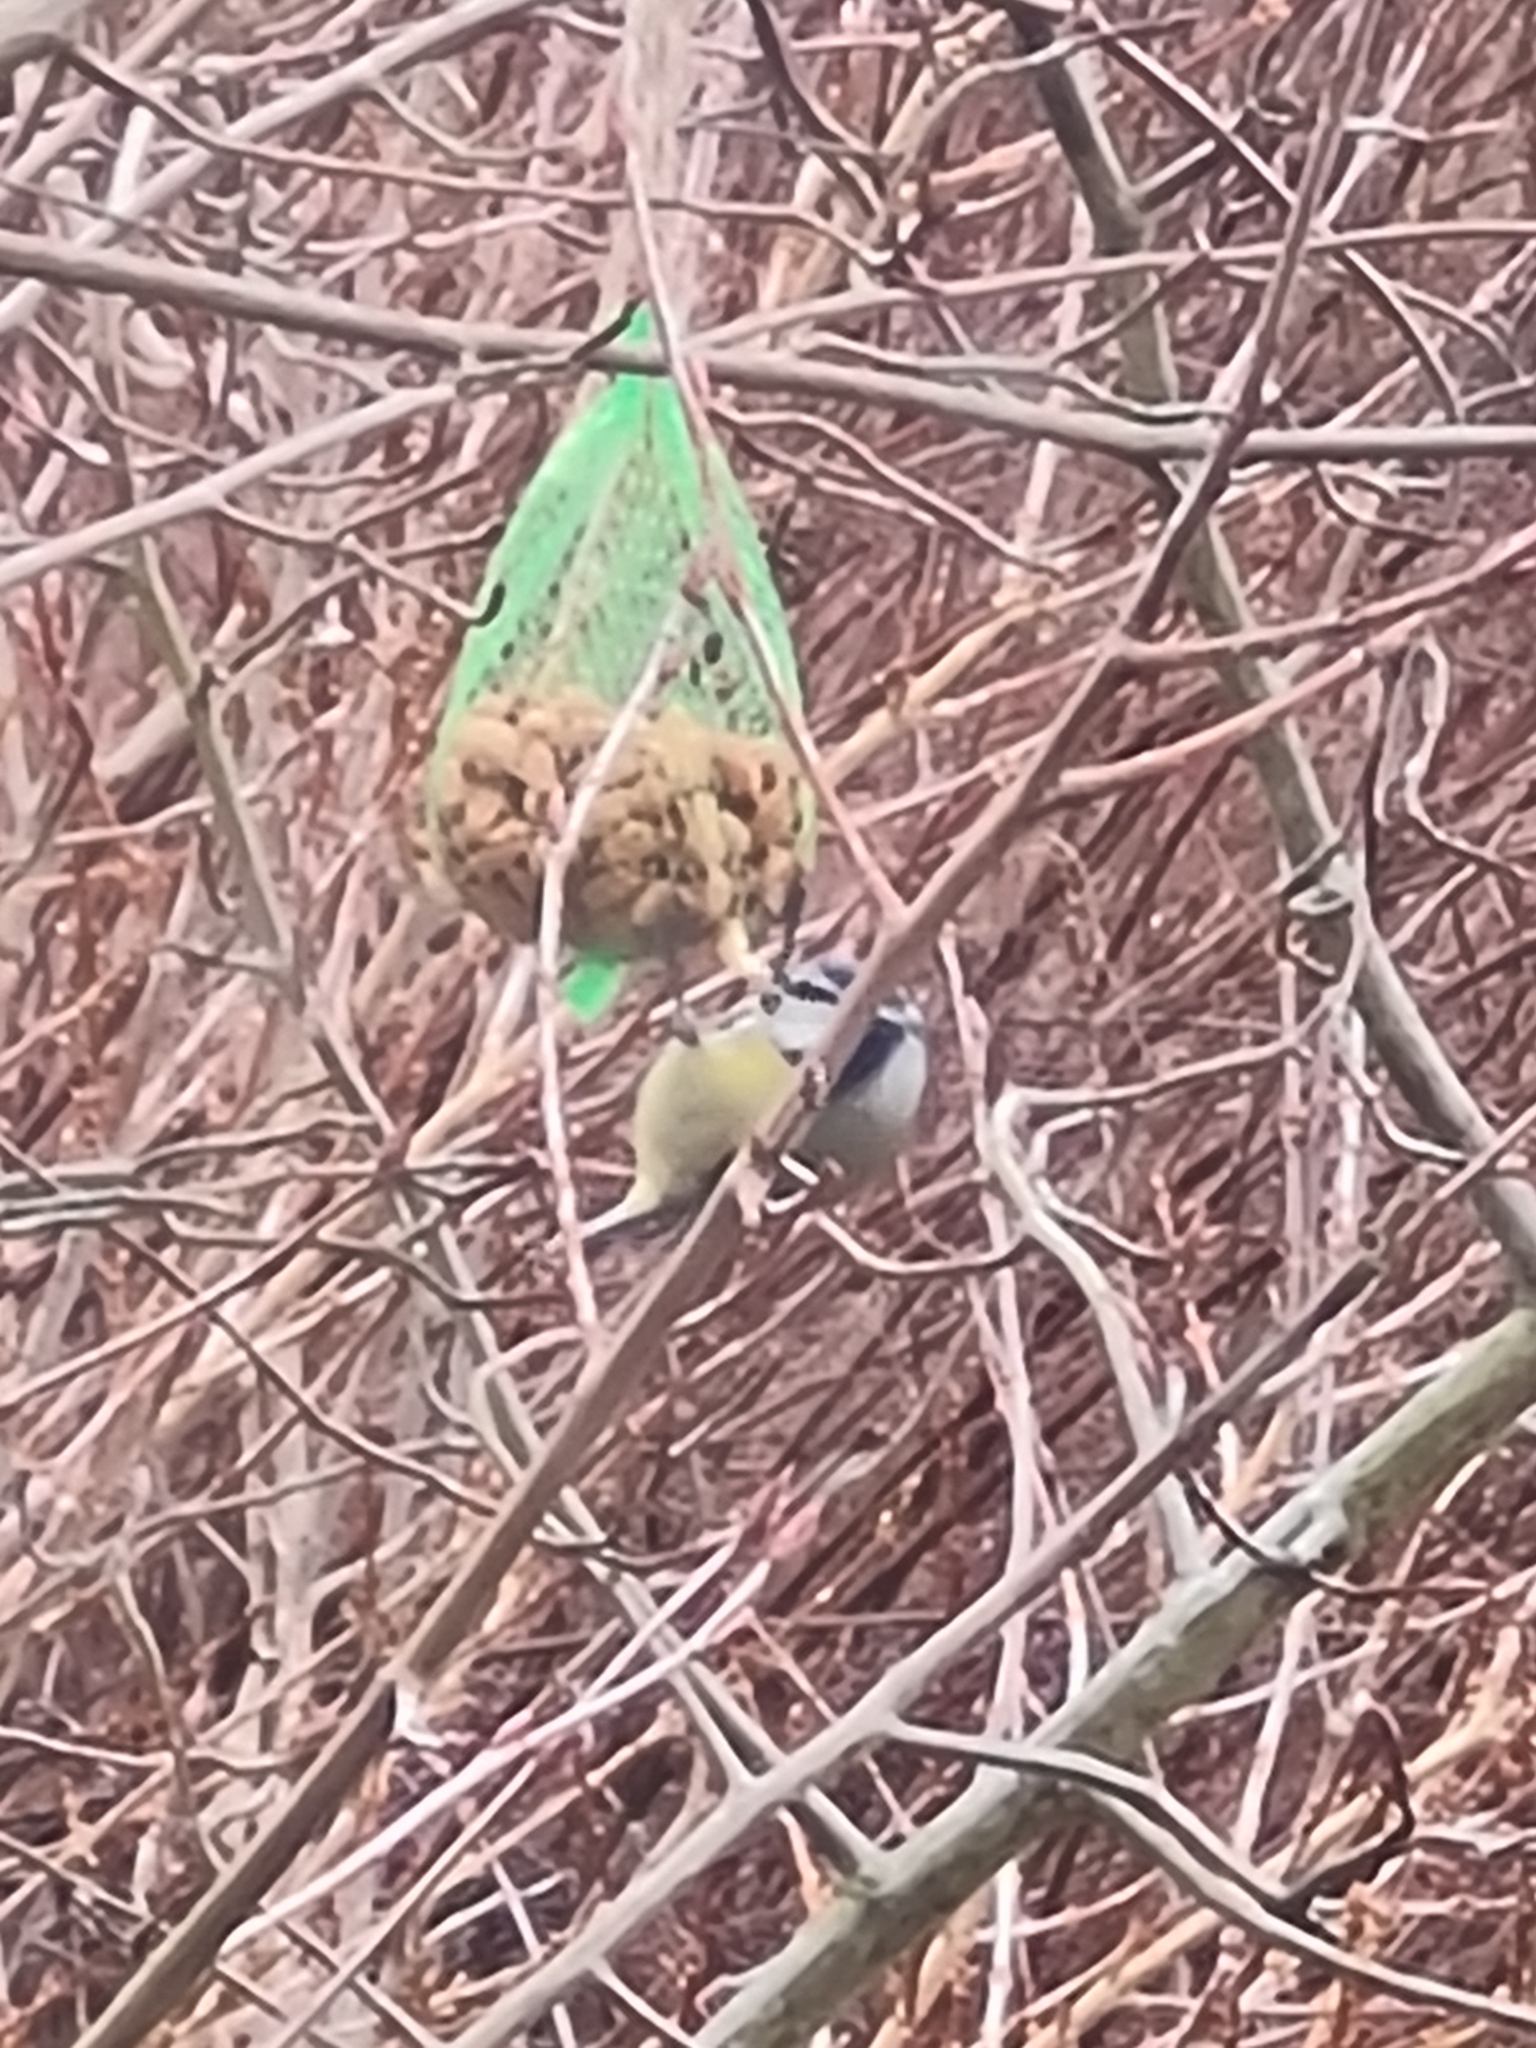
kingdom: Animalia
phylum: Chordata
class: Aves
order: Passeriformes
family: Paridae
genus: Cyanistes
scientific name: Cyanistes caeruleus
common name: Eurasian blue tit
